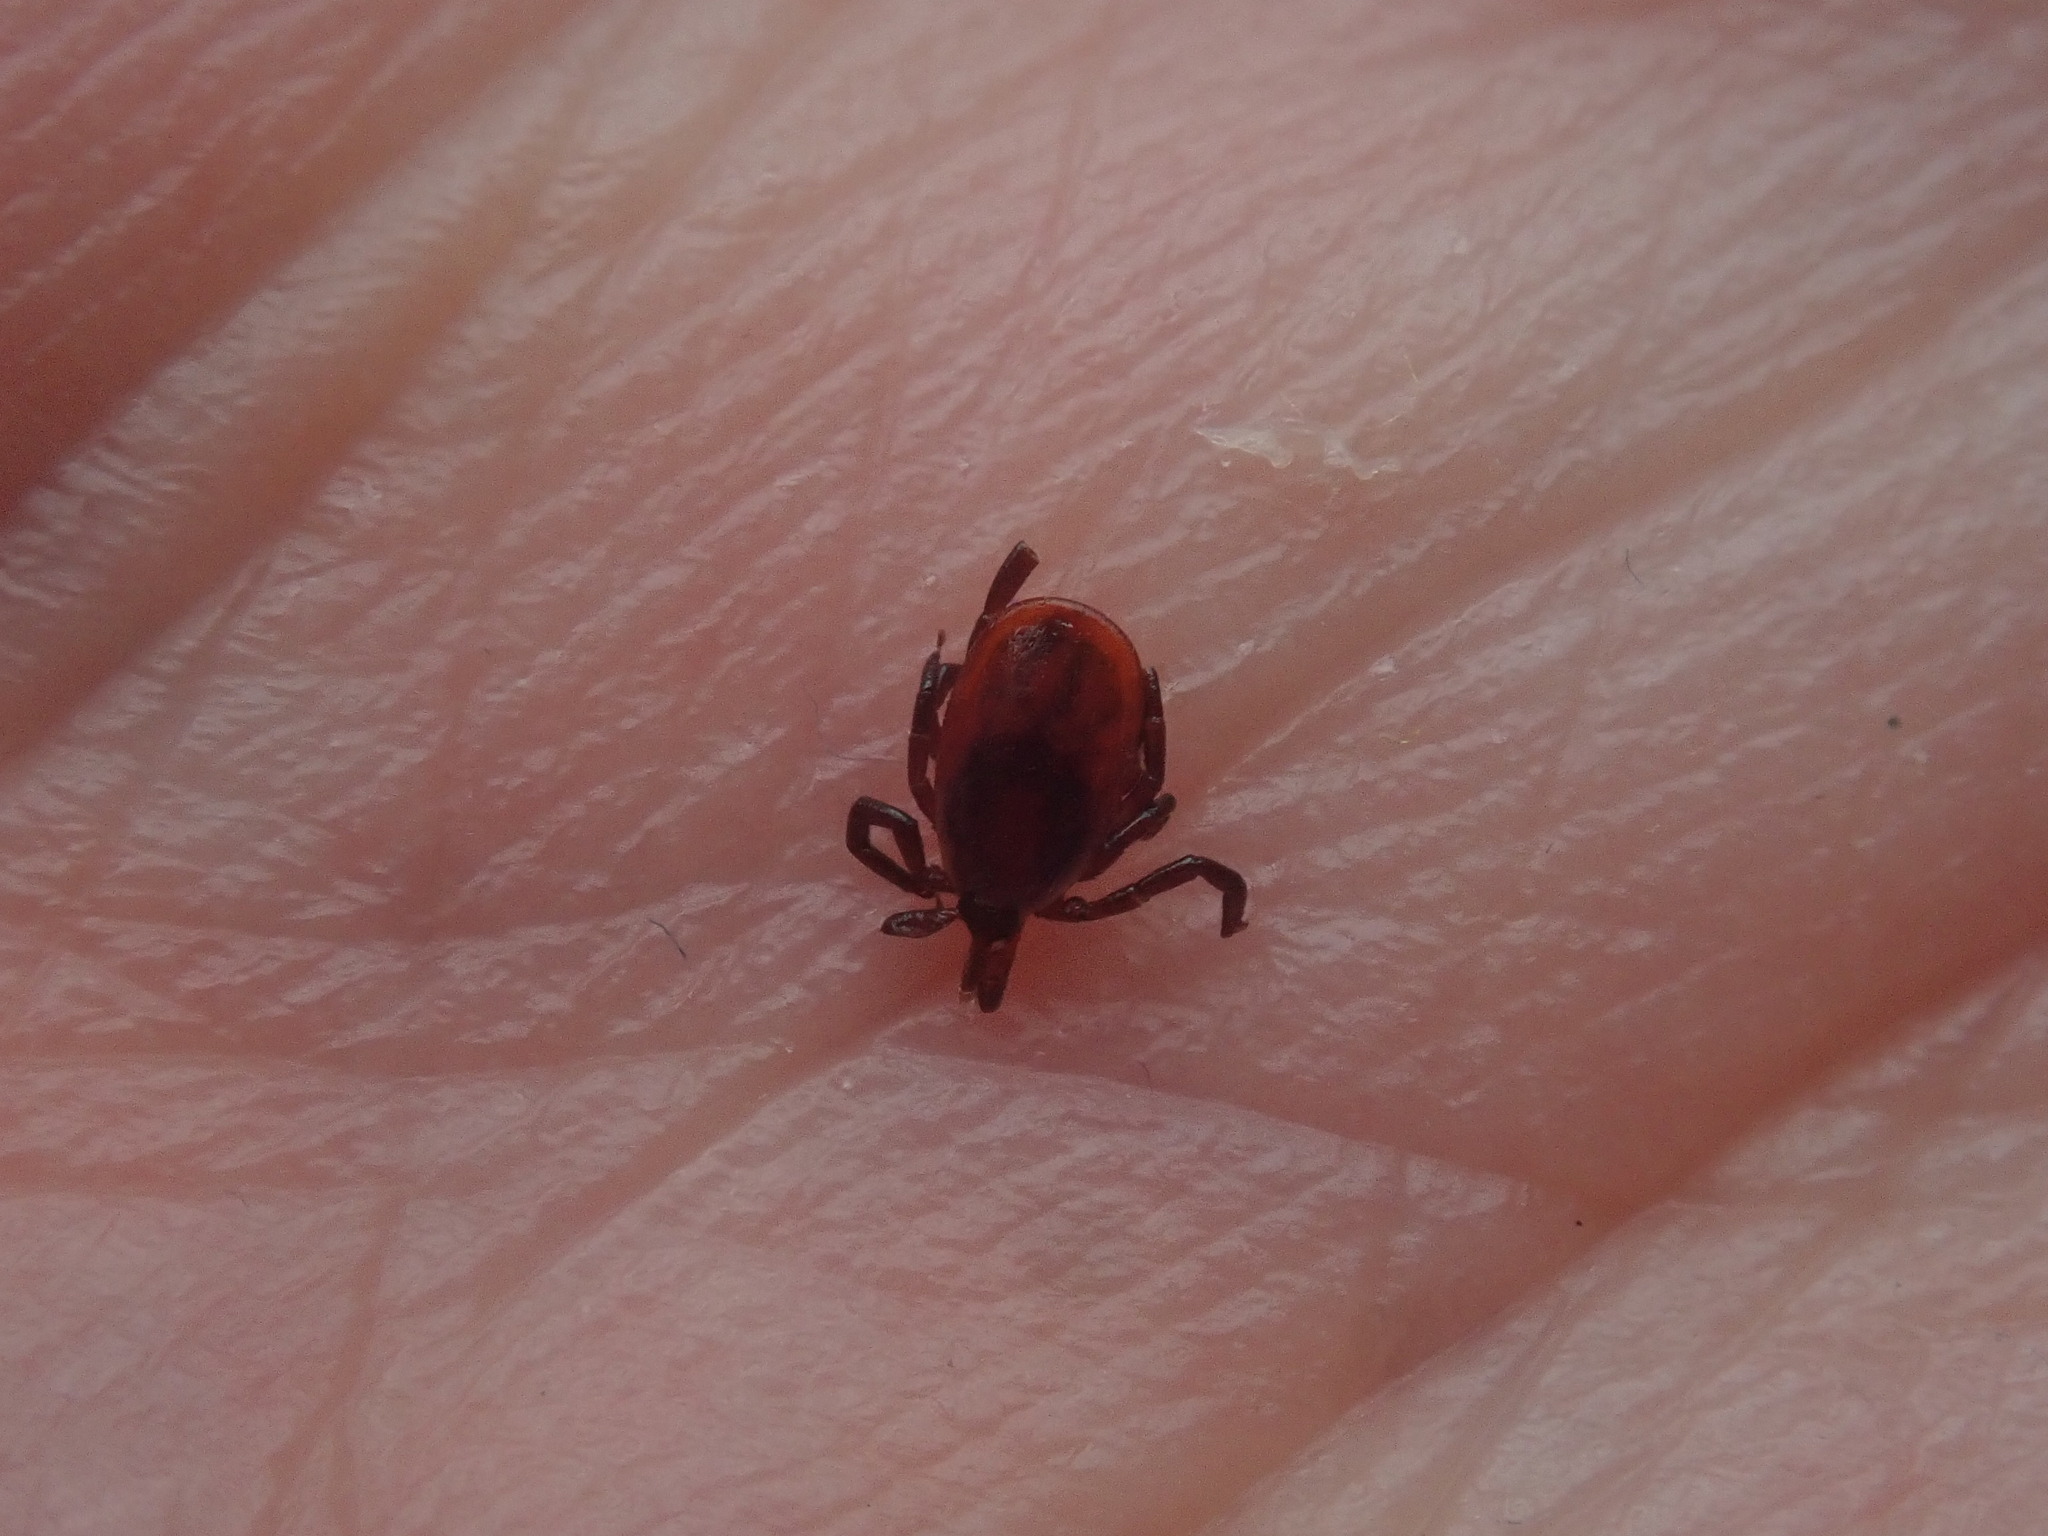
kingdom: Animalia
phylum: Arthropoda
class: Arachnida
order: Ixodida
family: Ixodidae
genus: Ixodes
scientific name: Ixodes scapularis
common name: Black legged tick
